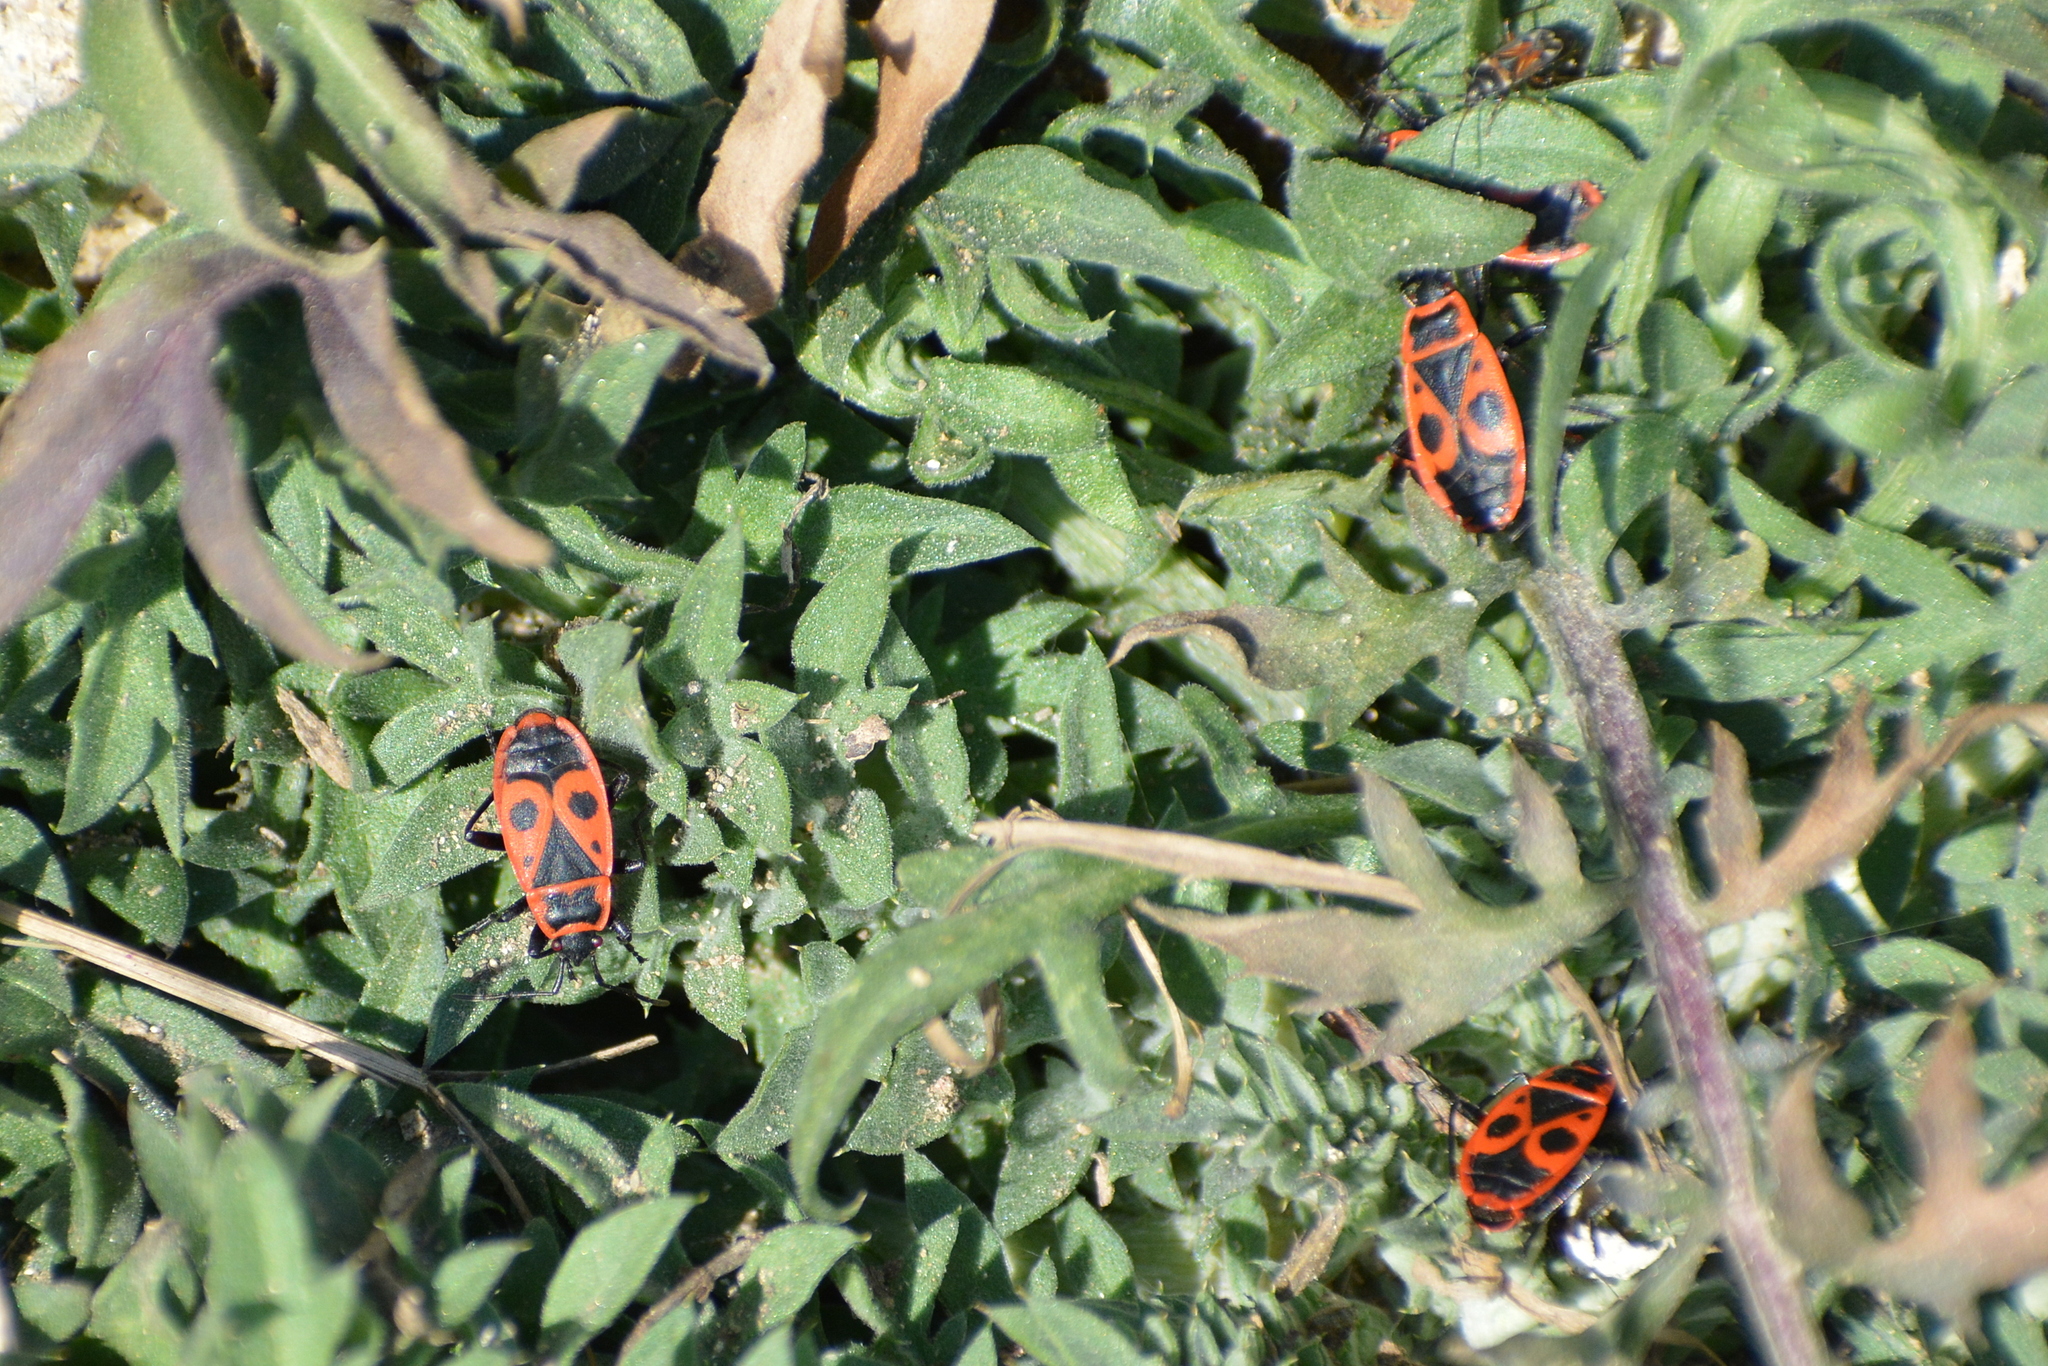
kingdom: Animalia
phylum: Arthropoda
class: Insecta
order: Hemiptera
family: Pyrrhocoridae
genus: Pyrrhocoris
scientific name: Pyrrhocoris apterus
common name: Firebug
